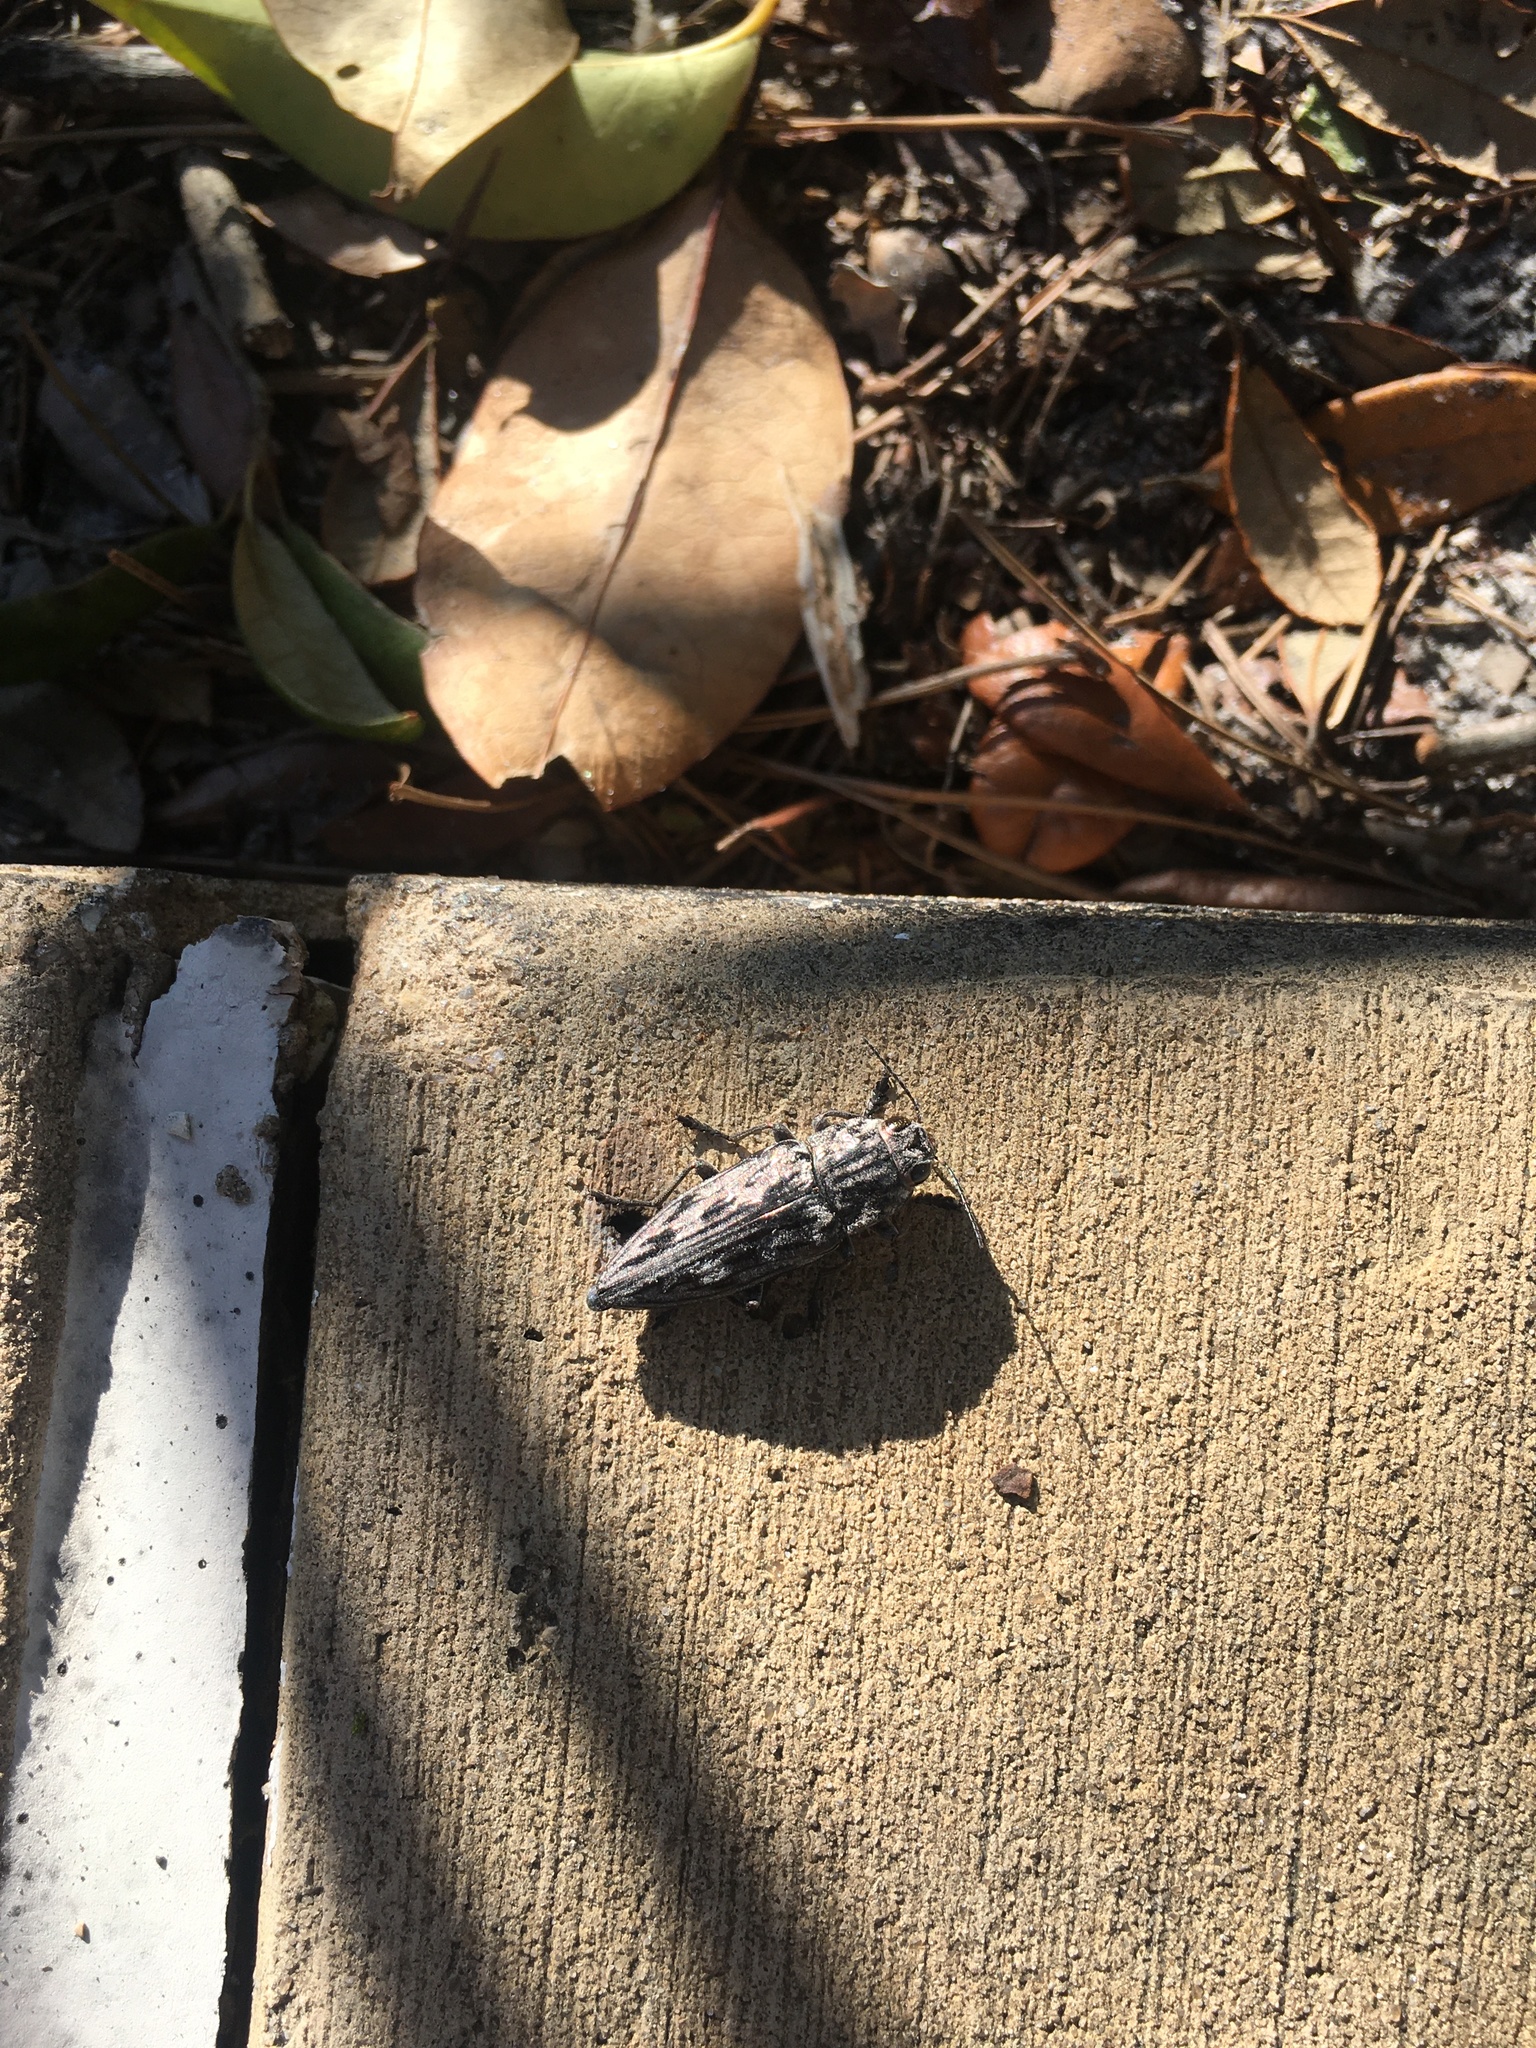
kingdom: Animalia
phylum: Arthropoda
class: Insecta
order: Coleoptera
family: Buprestidae
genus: Chalcophora
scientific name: Chalcophora virginiensis
